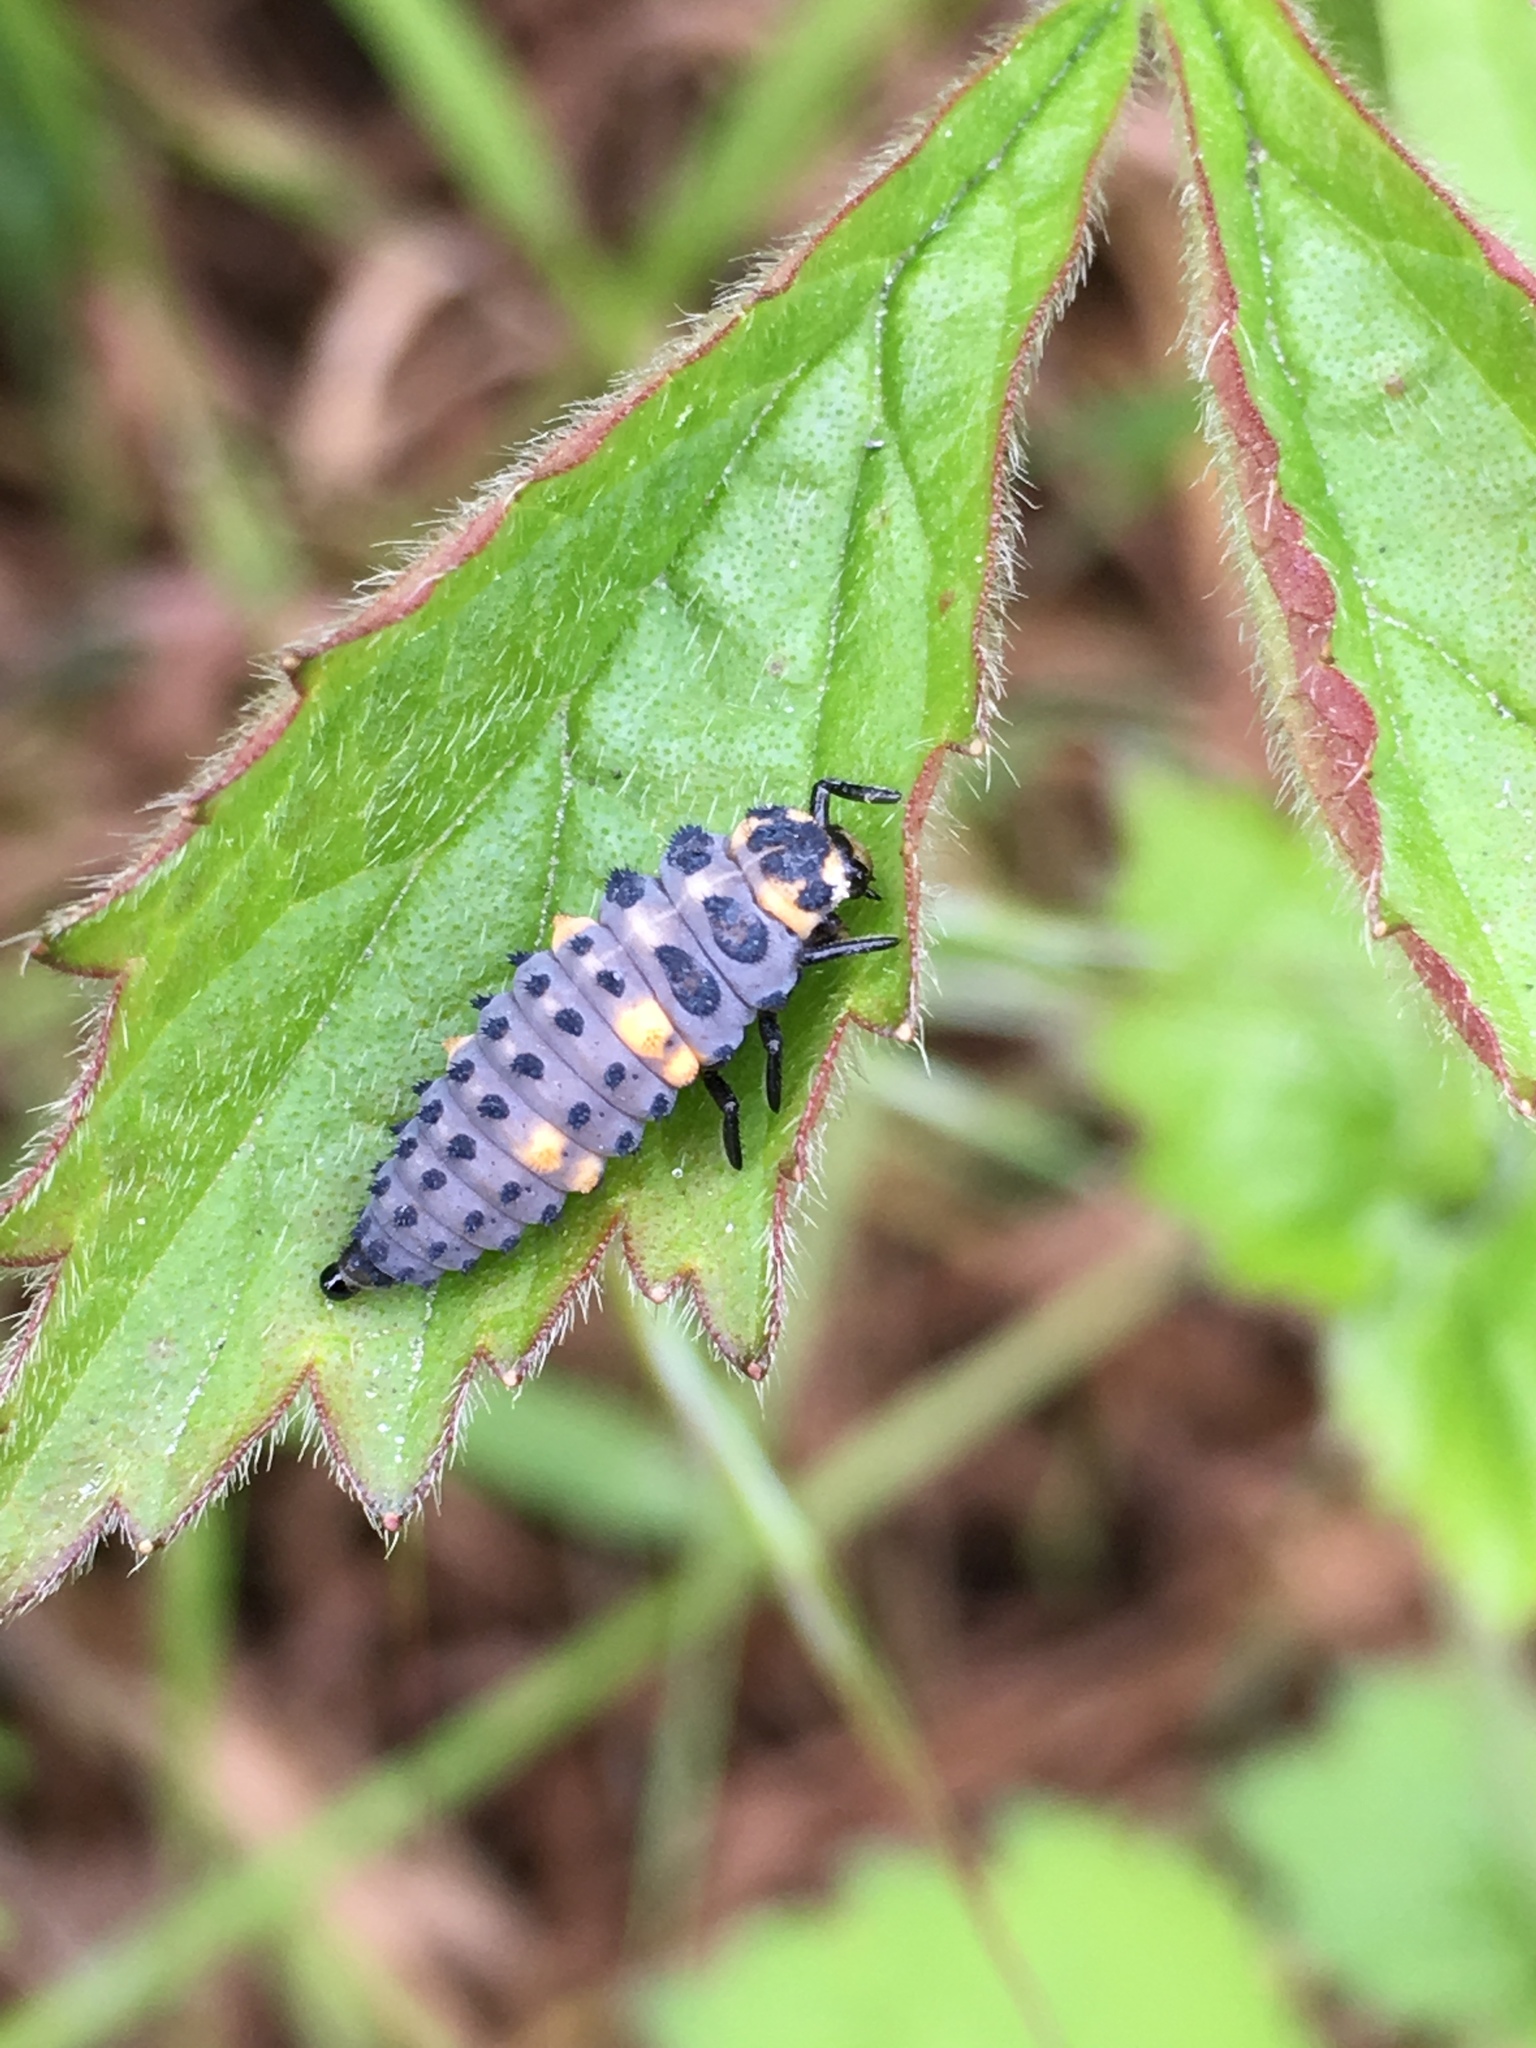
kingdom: Animalia
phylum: Arthropoda
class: Insecta
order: Coleoptera
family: Coccinellidae
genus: Coccinella
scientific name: Coccinella septempunctata
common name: Sevenspotted lady beetle
